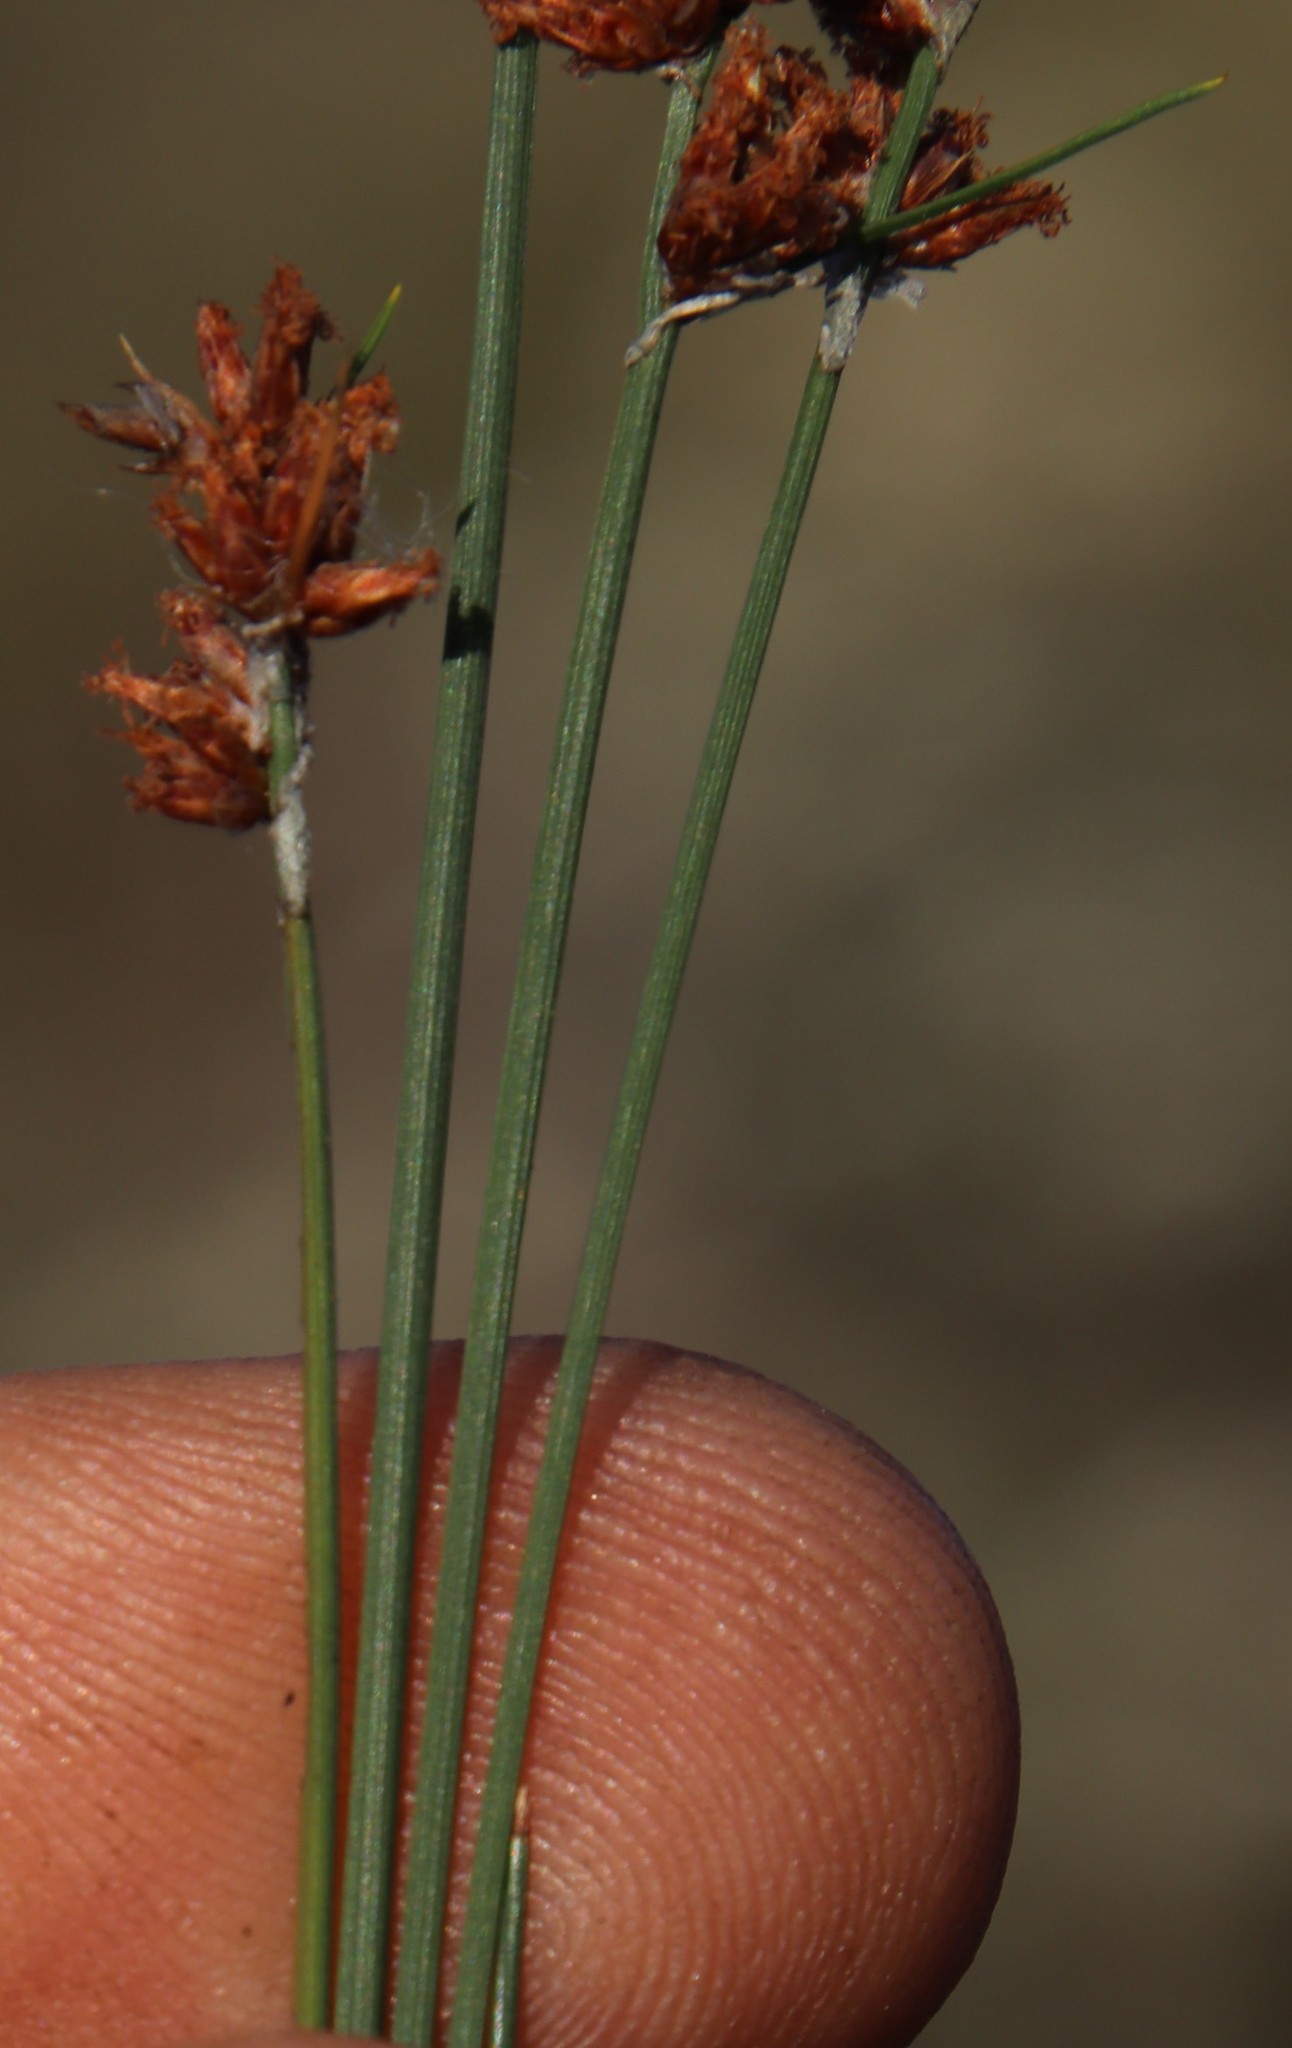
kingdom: Plantae
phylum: Tracheophyta
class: Liliopsida
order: Poales
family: Cyperaceae
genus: Ficinia
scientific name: Ficinia bulbosa
